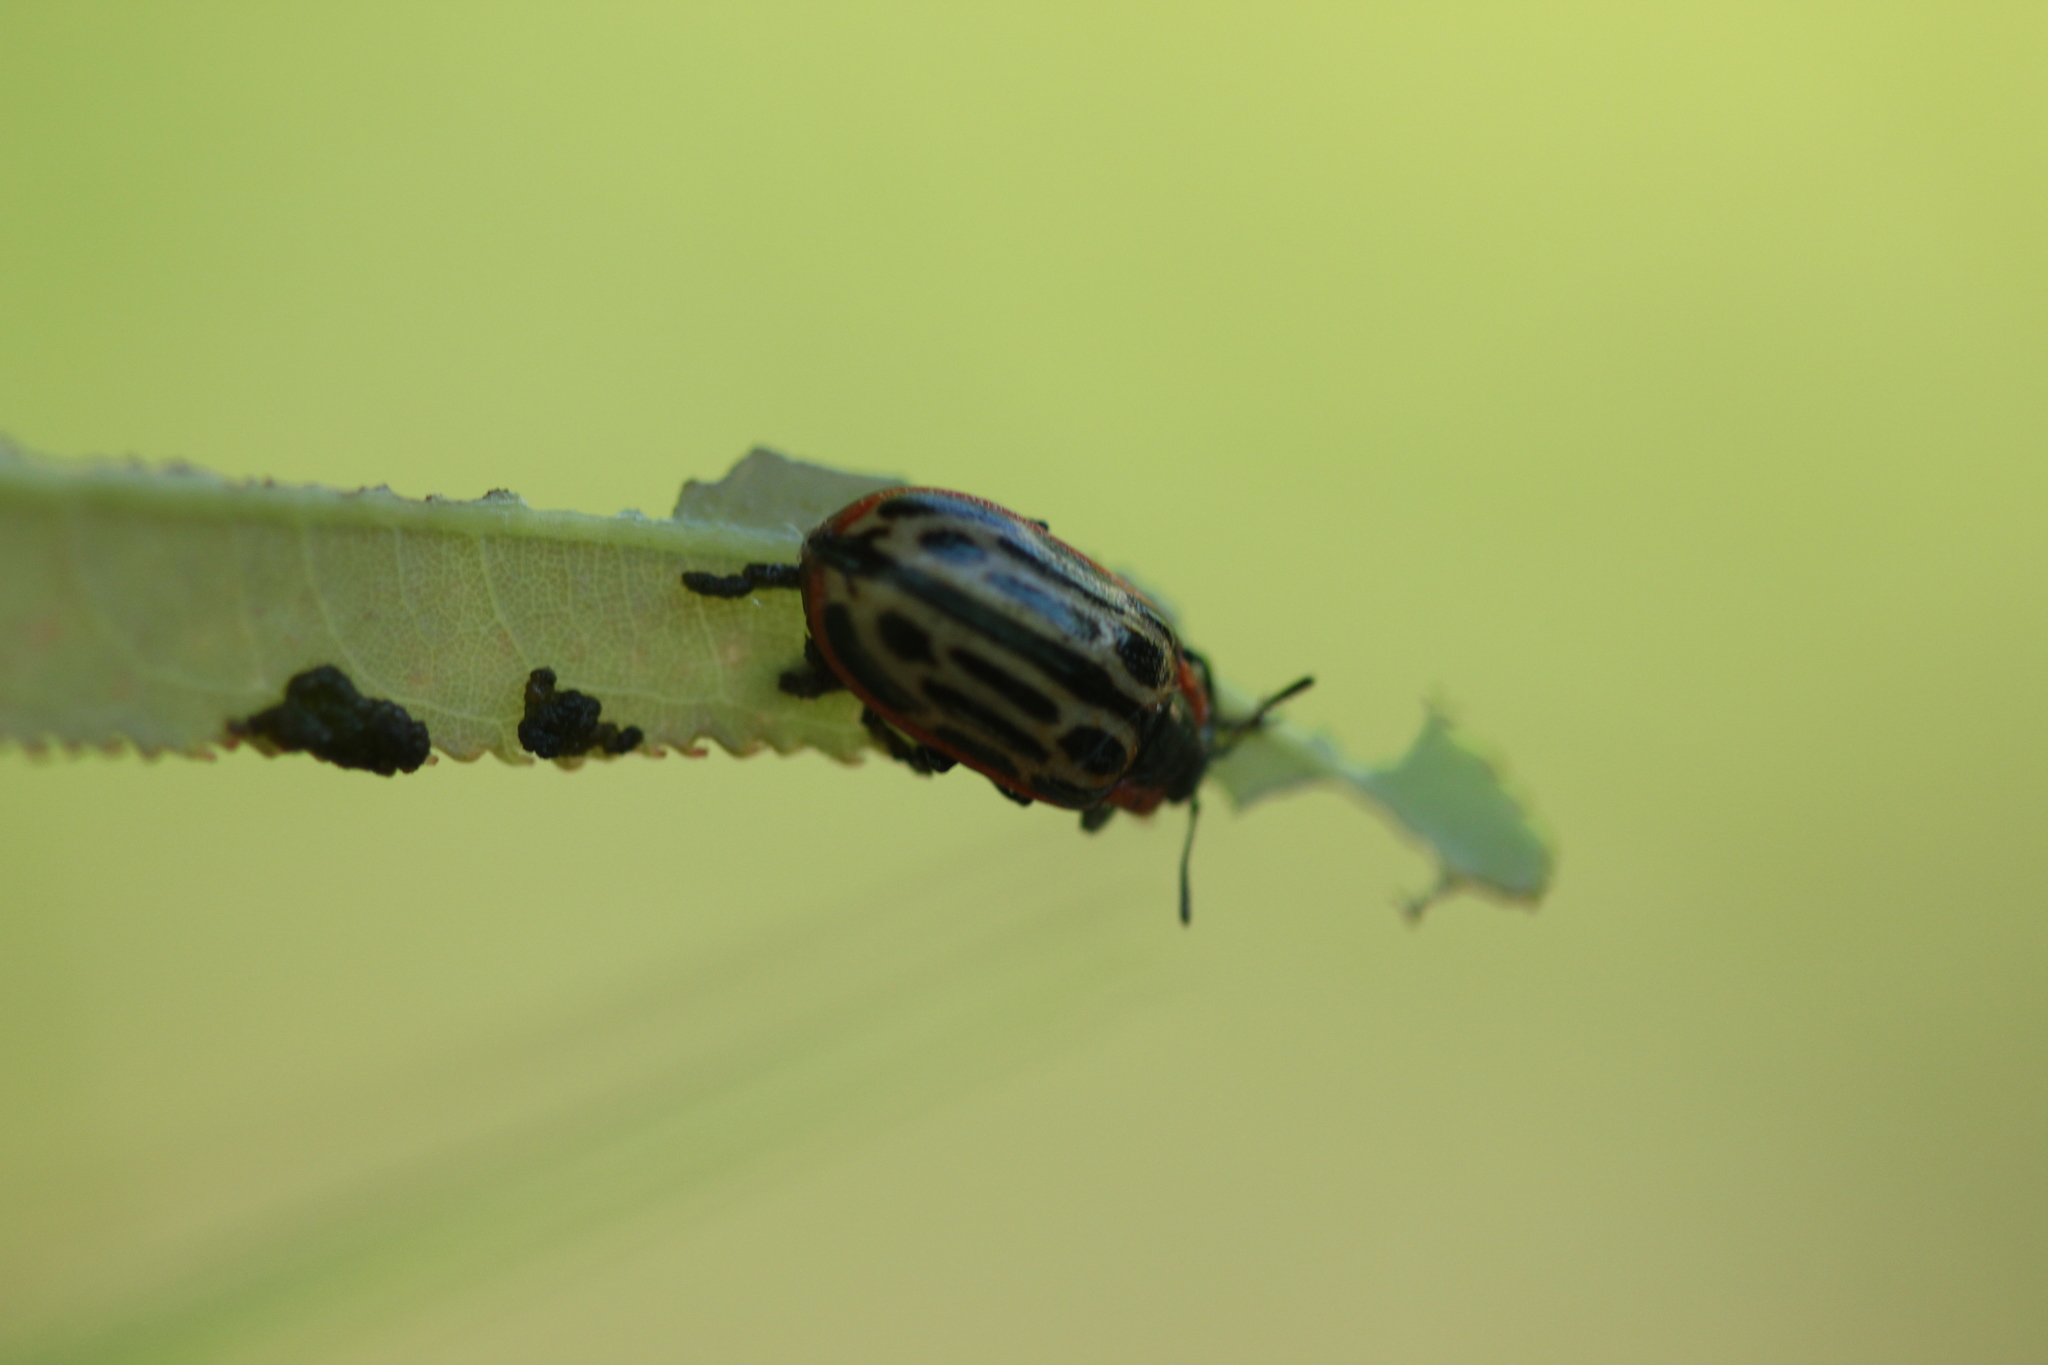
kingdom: Animalia
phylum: Arthropoda
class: Insecta
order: Coleoptera
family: Chrysomelidae
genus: Aethiopocassis
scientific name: Aethiopocassis scripta
